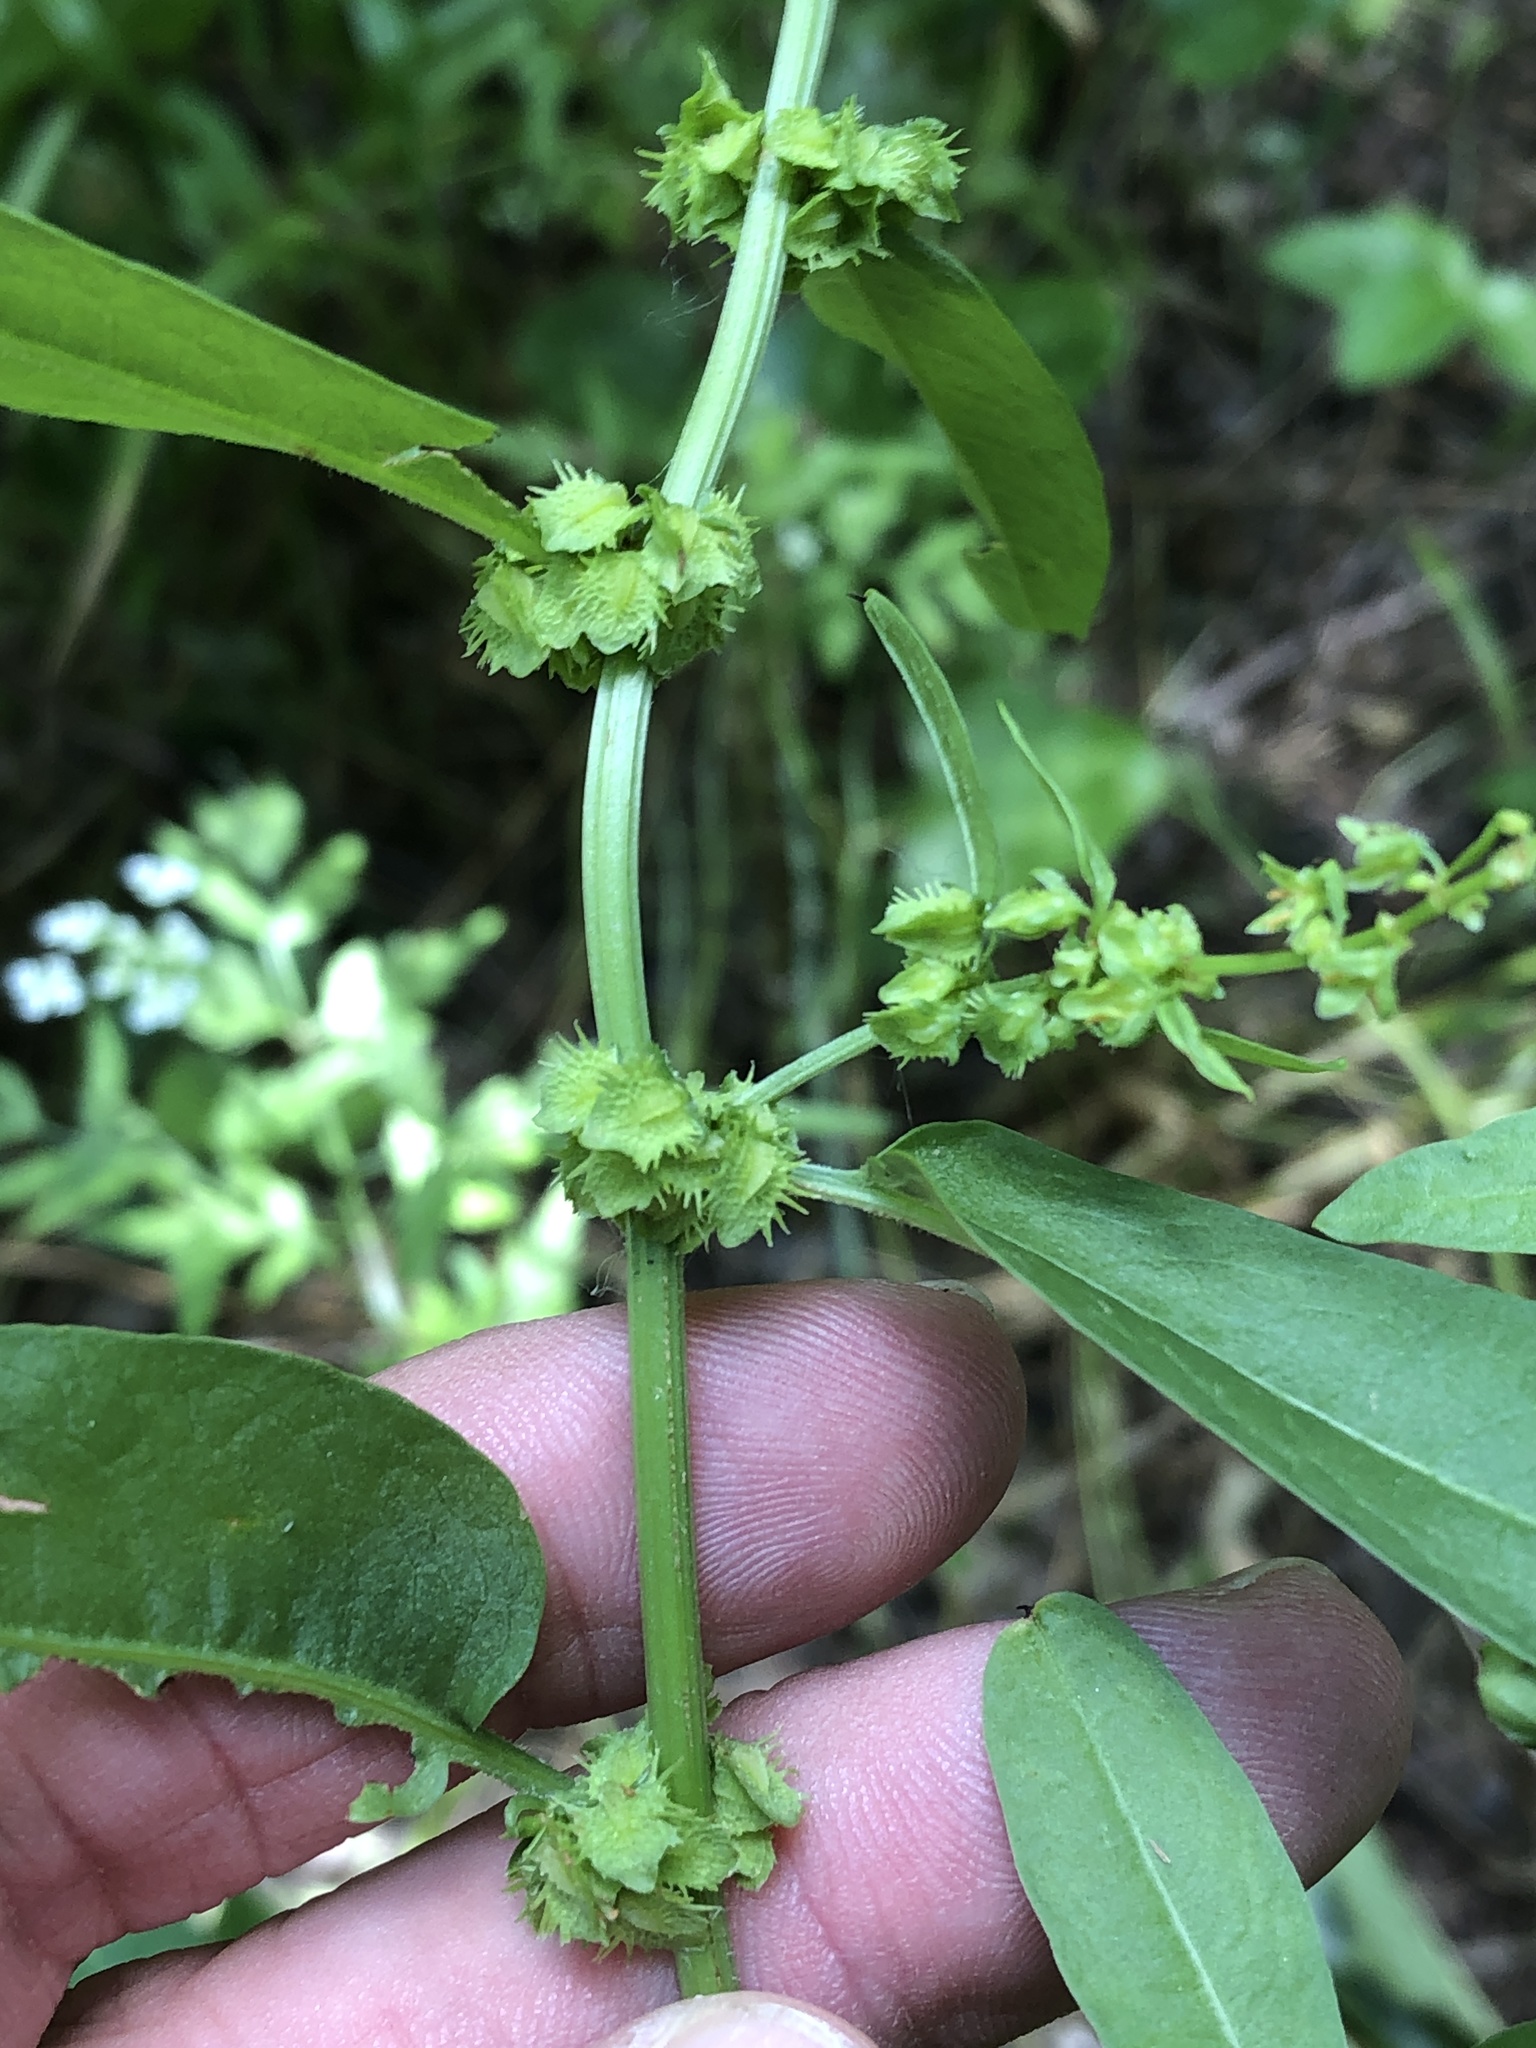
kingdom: Plantae
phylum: Tracheophyta
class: Magnoliopsida
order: Caryophyllales
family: Polygonaceae
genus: Rumex
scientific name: Rumex pulcher
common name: Fiddle dock
